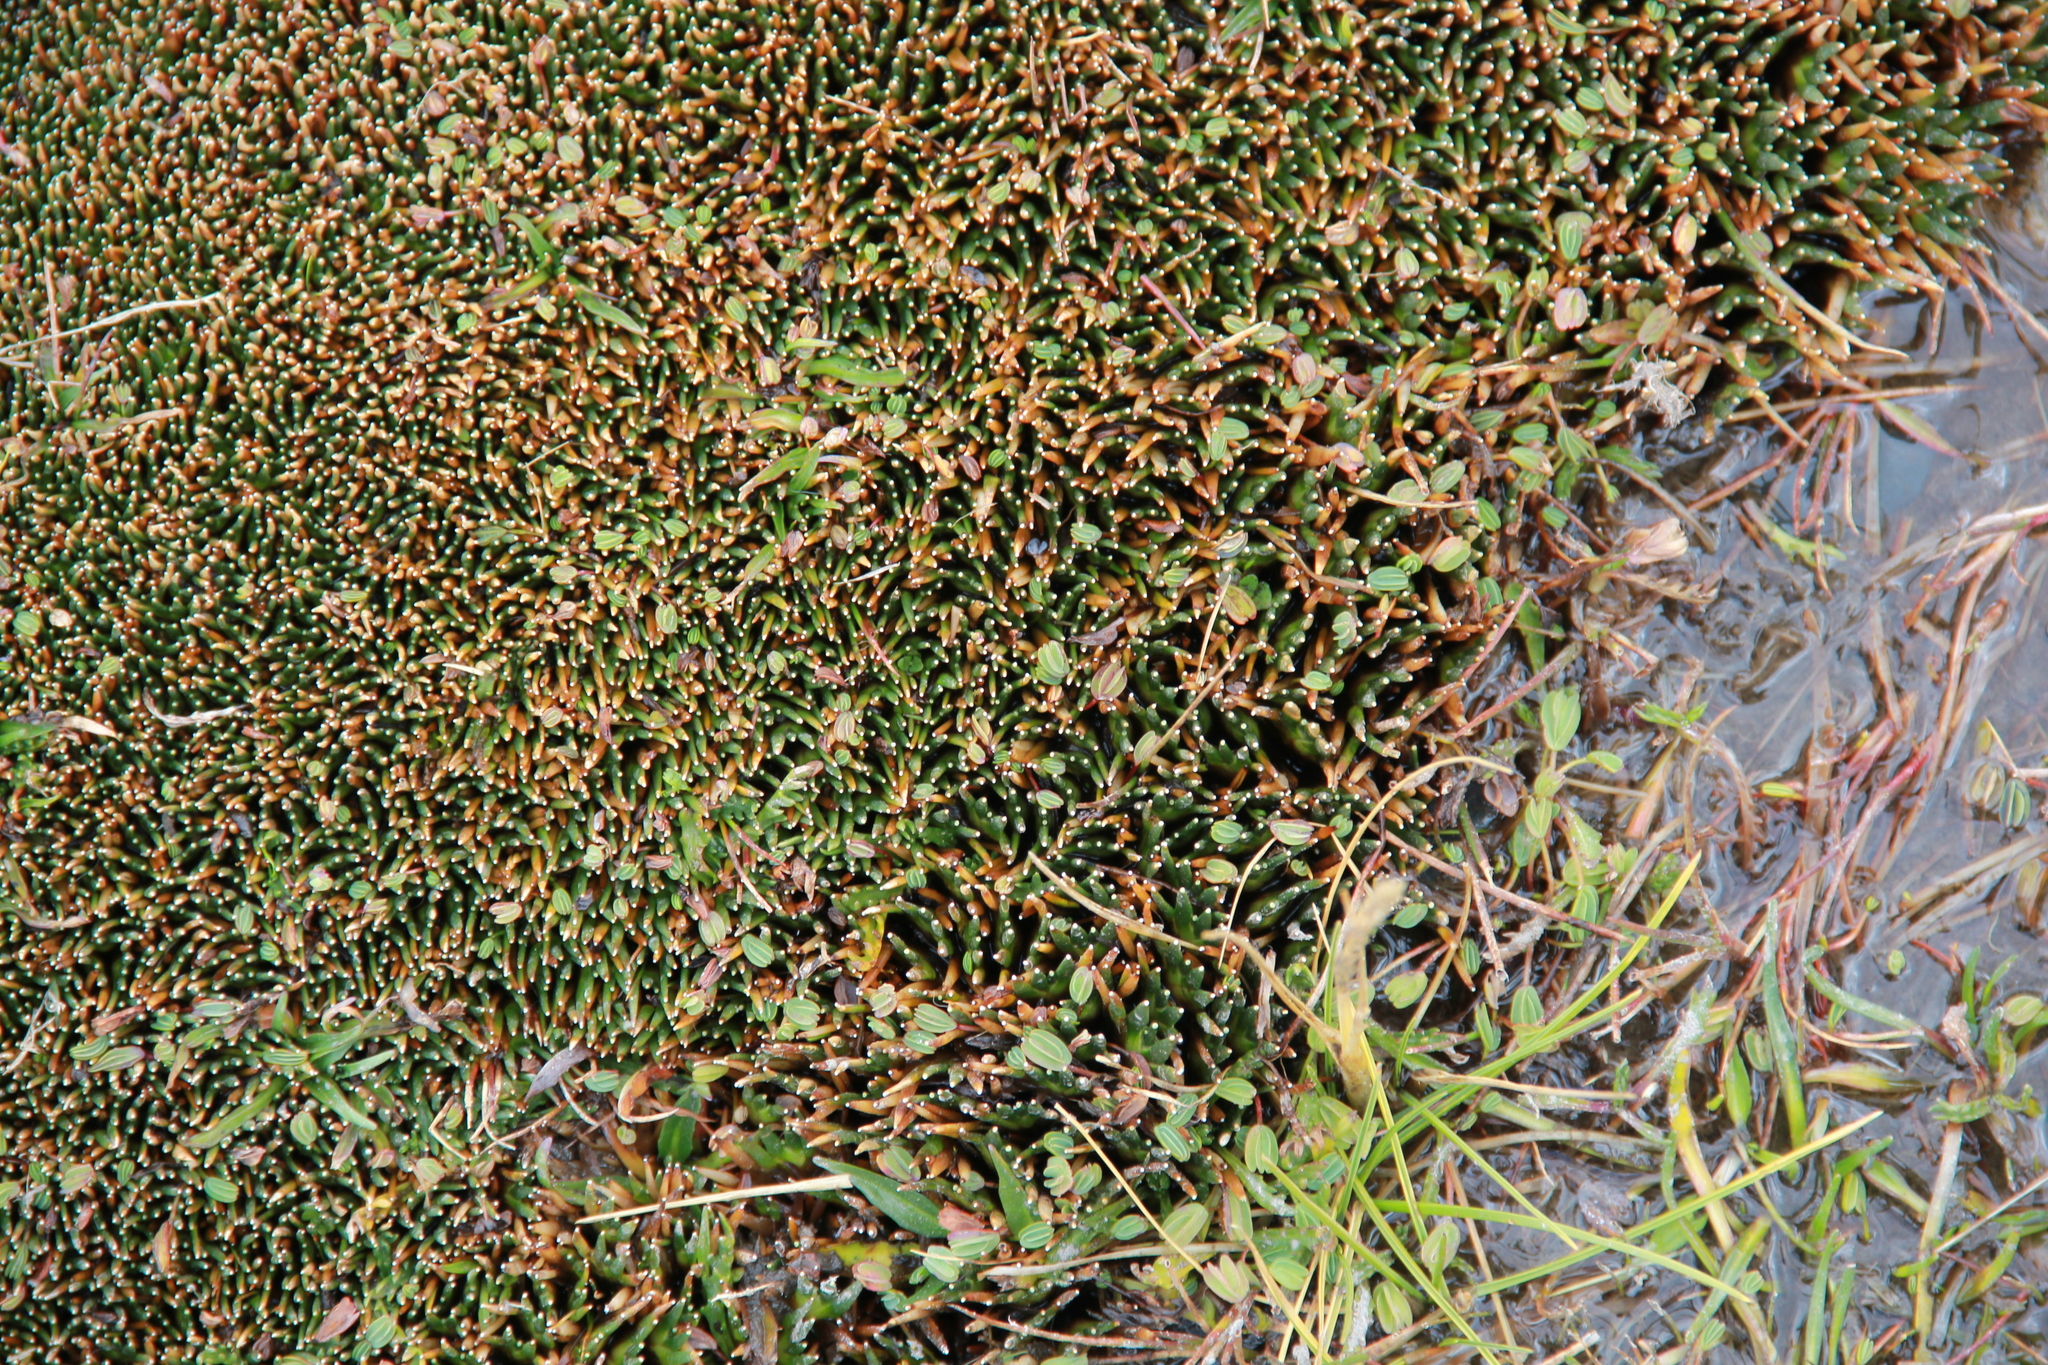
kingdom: Plantae
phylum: Tracheophyta
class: Magnoliopsida
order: Rosales
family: Rosaceae
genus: Lachemilla
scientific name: Lachemilla diplophylla
